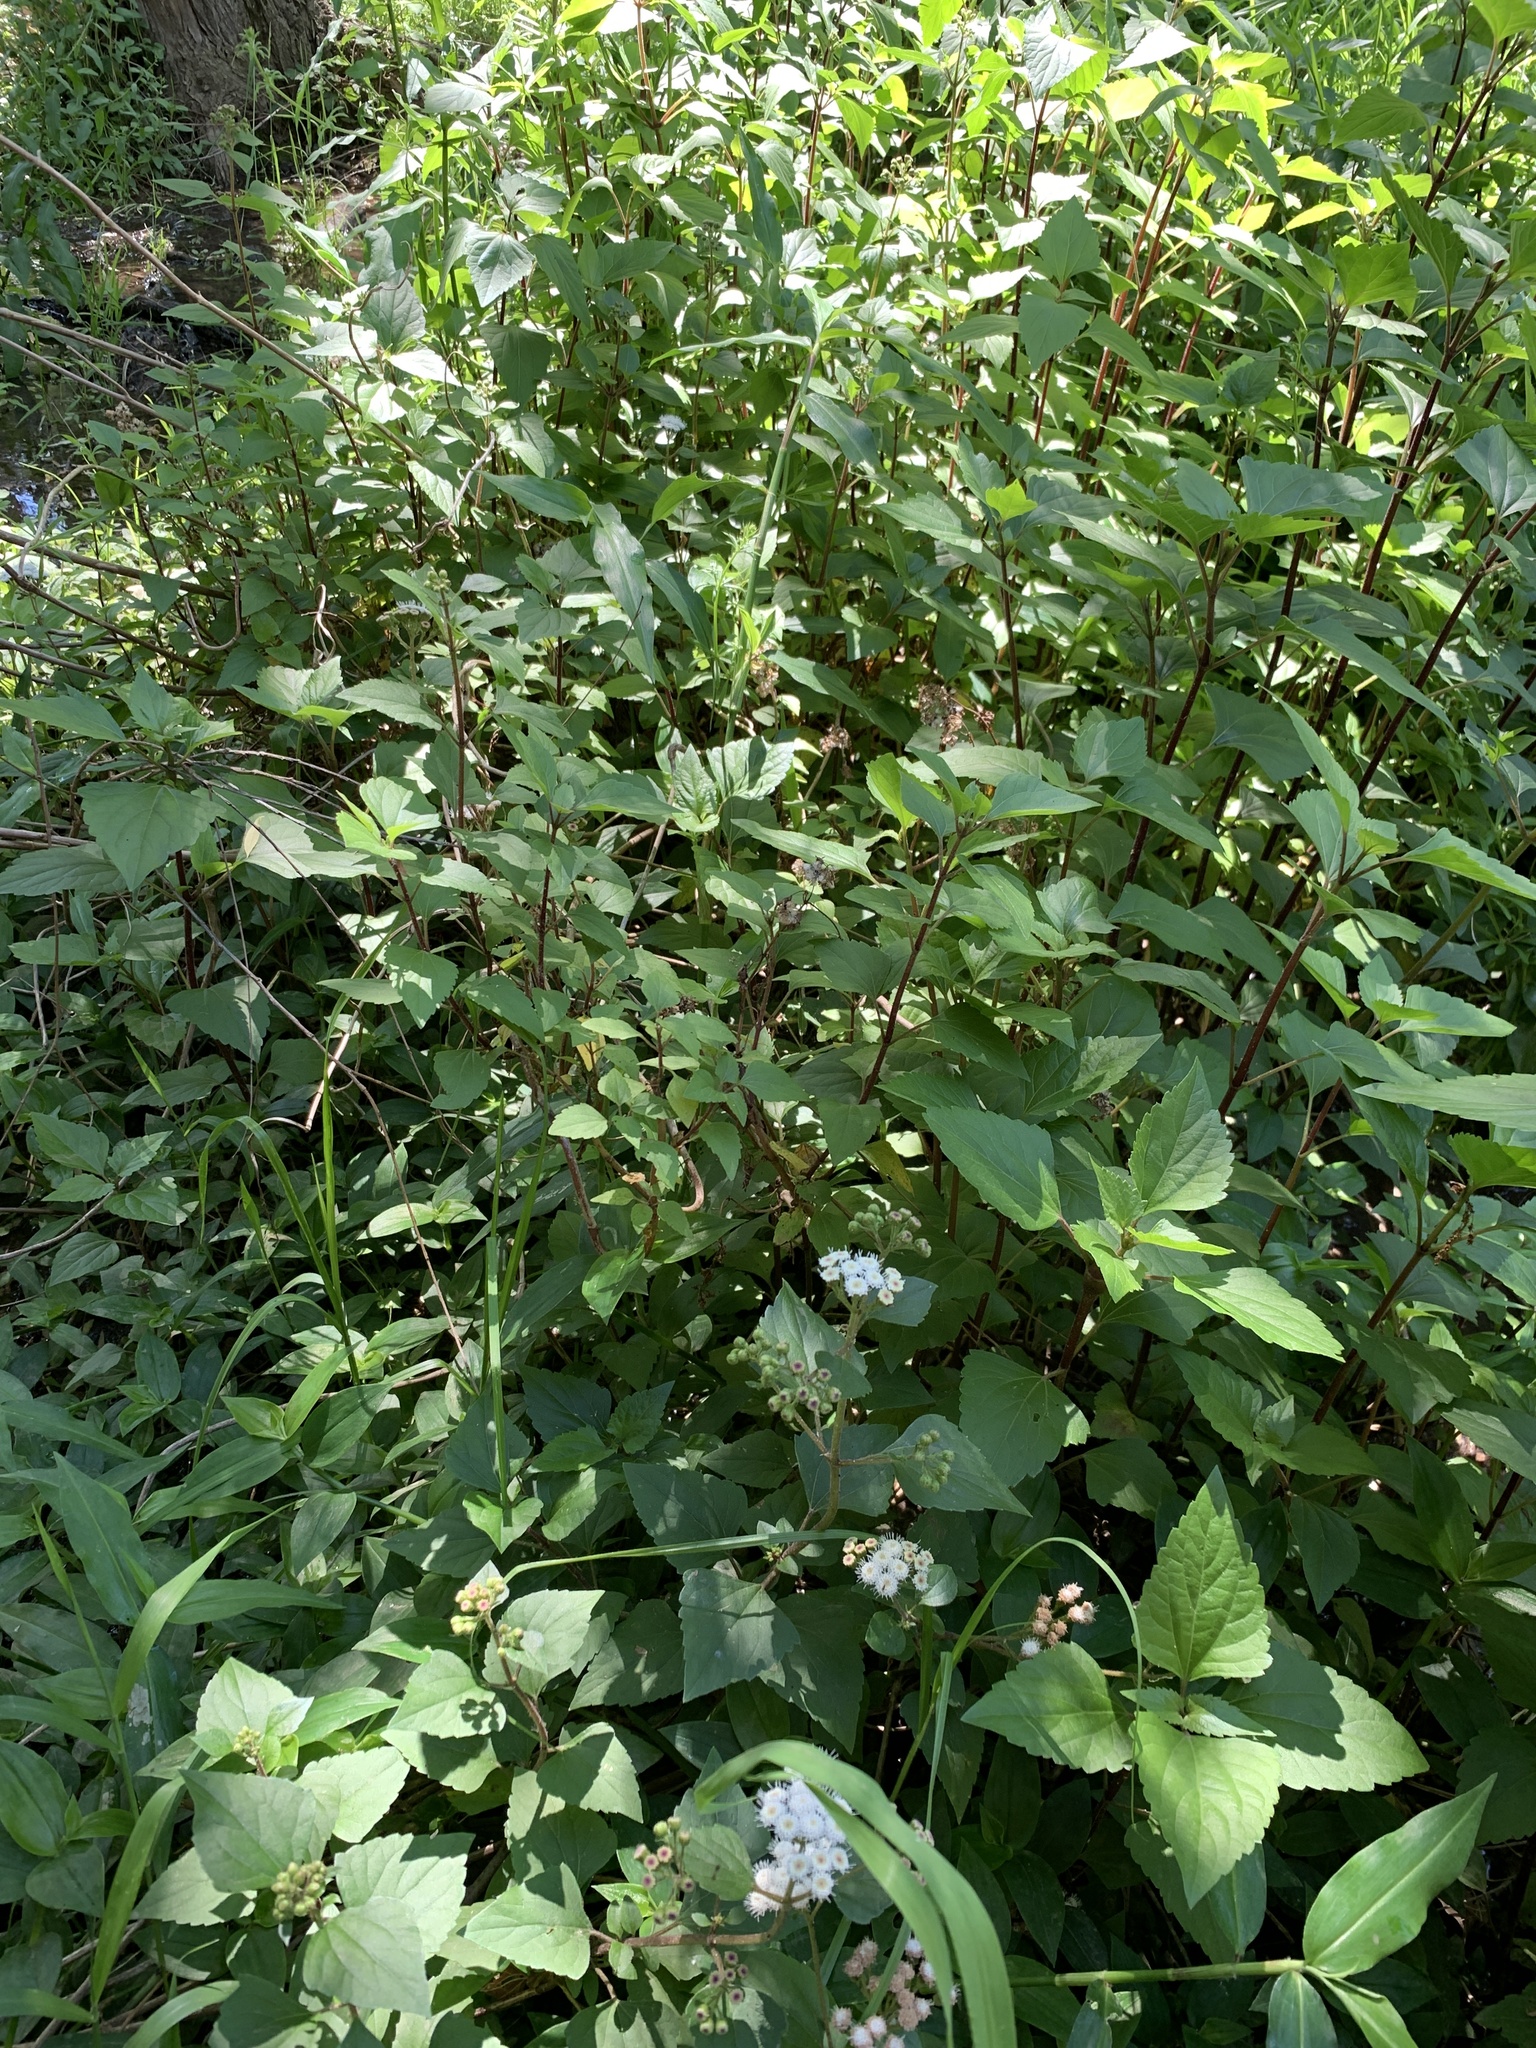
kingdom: Plantae
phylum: Tracheophyta
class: Magnoliopsida
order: Asterales
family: Asteraceae
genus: Ageratina
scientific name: Ageratina adenophora
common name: Sticky snakeroot
